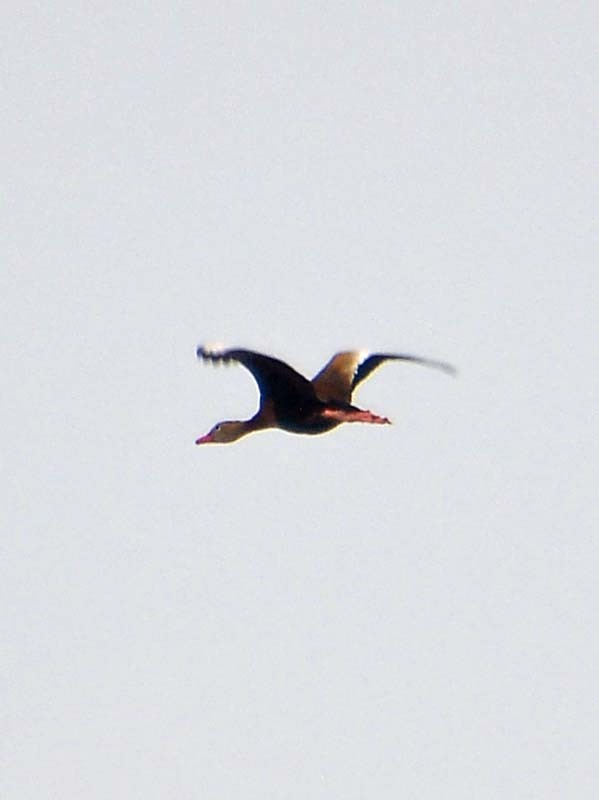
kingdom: Animalia
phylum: Chordata
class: Aves
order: Anseriformes
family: Anatidae
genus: Dendrocygna
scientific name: Dendrocygna autumnalis
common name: Black-bellied whistling duck
